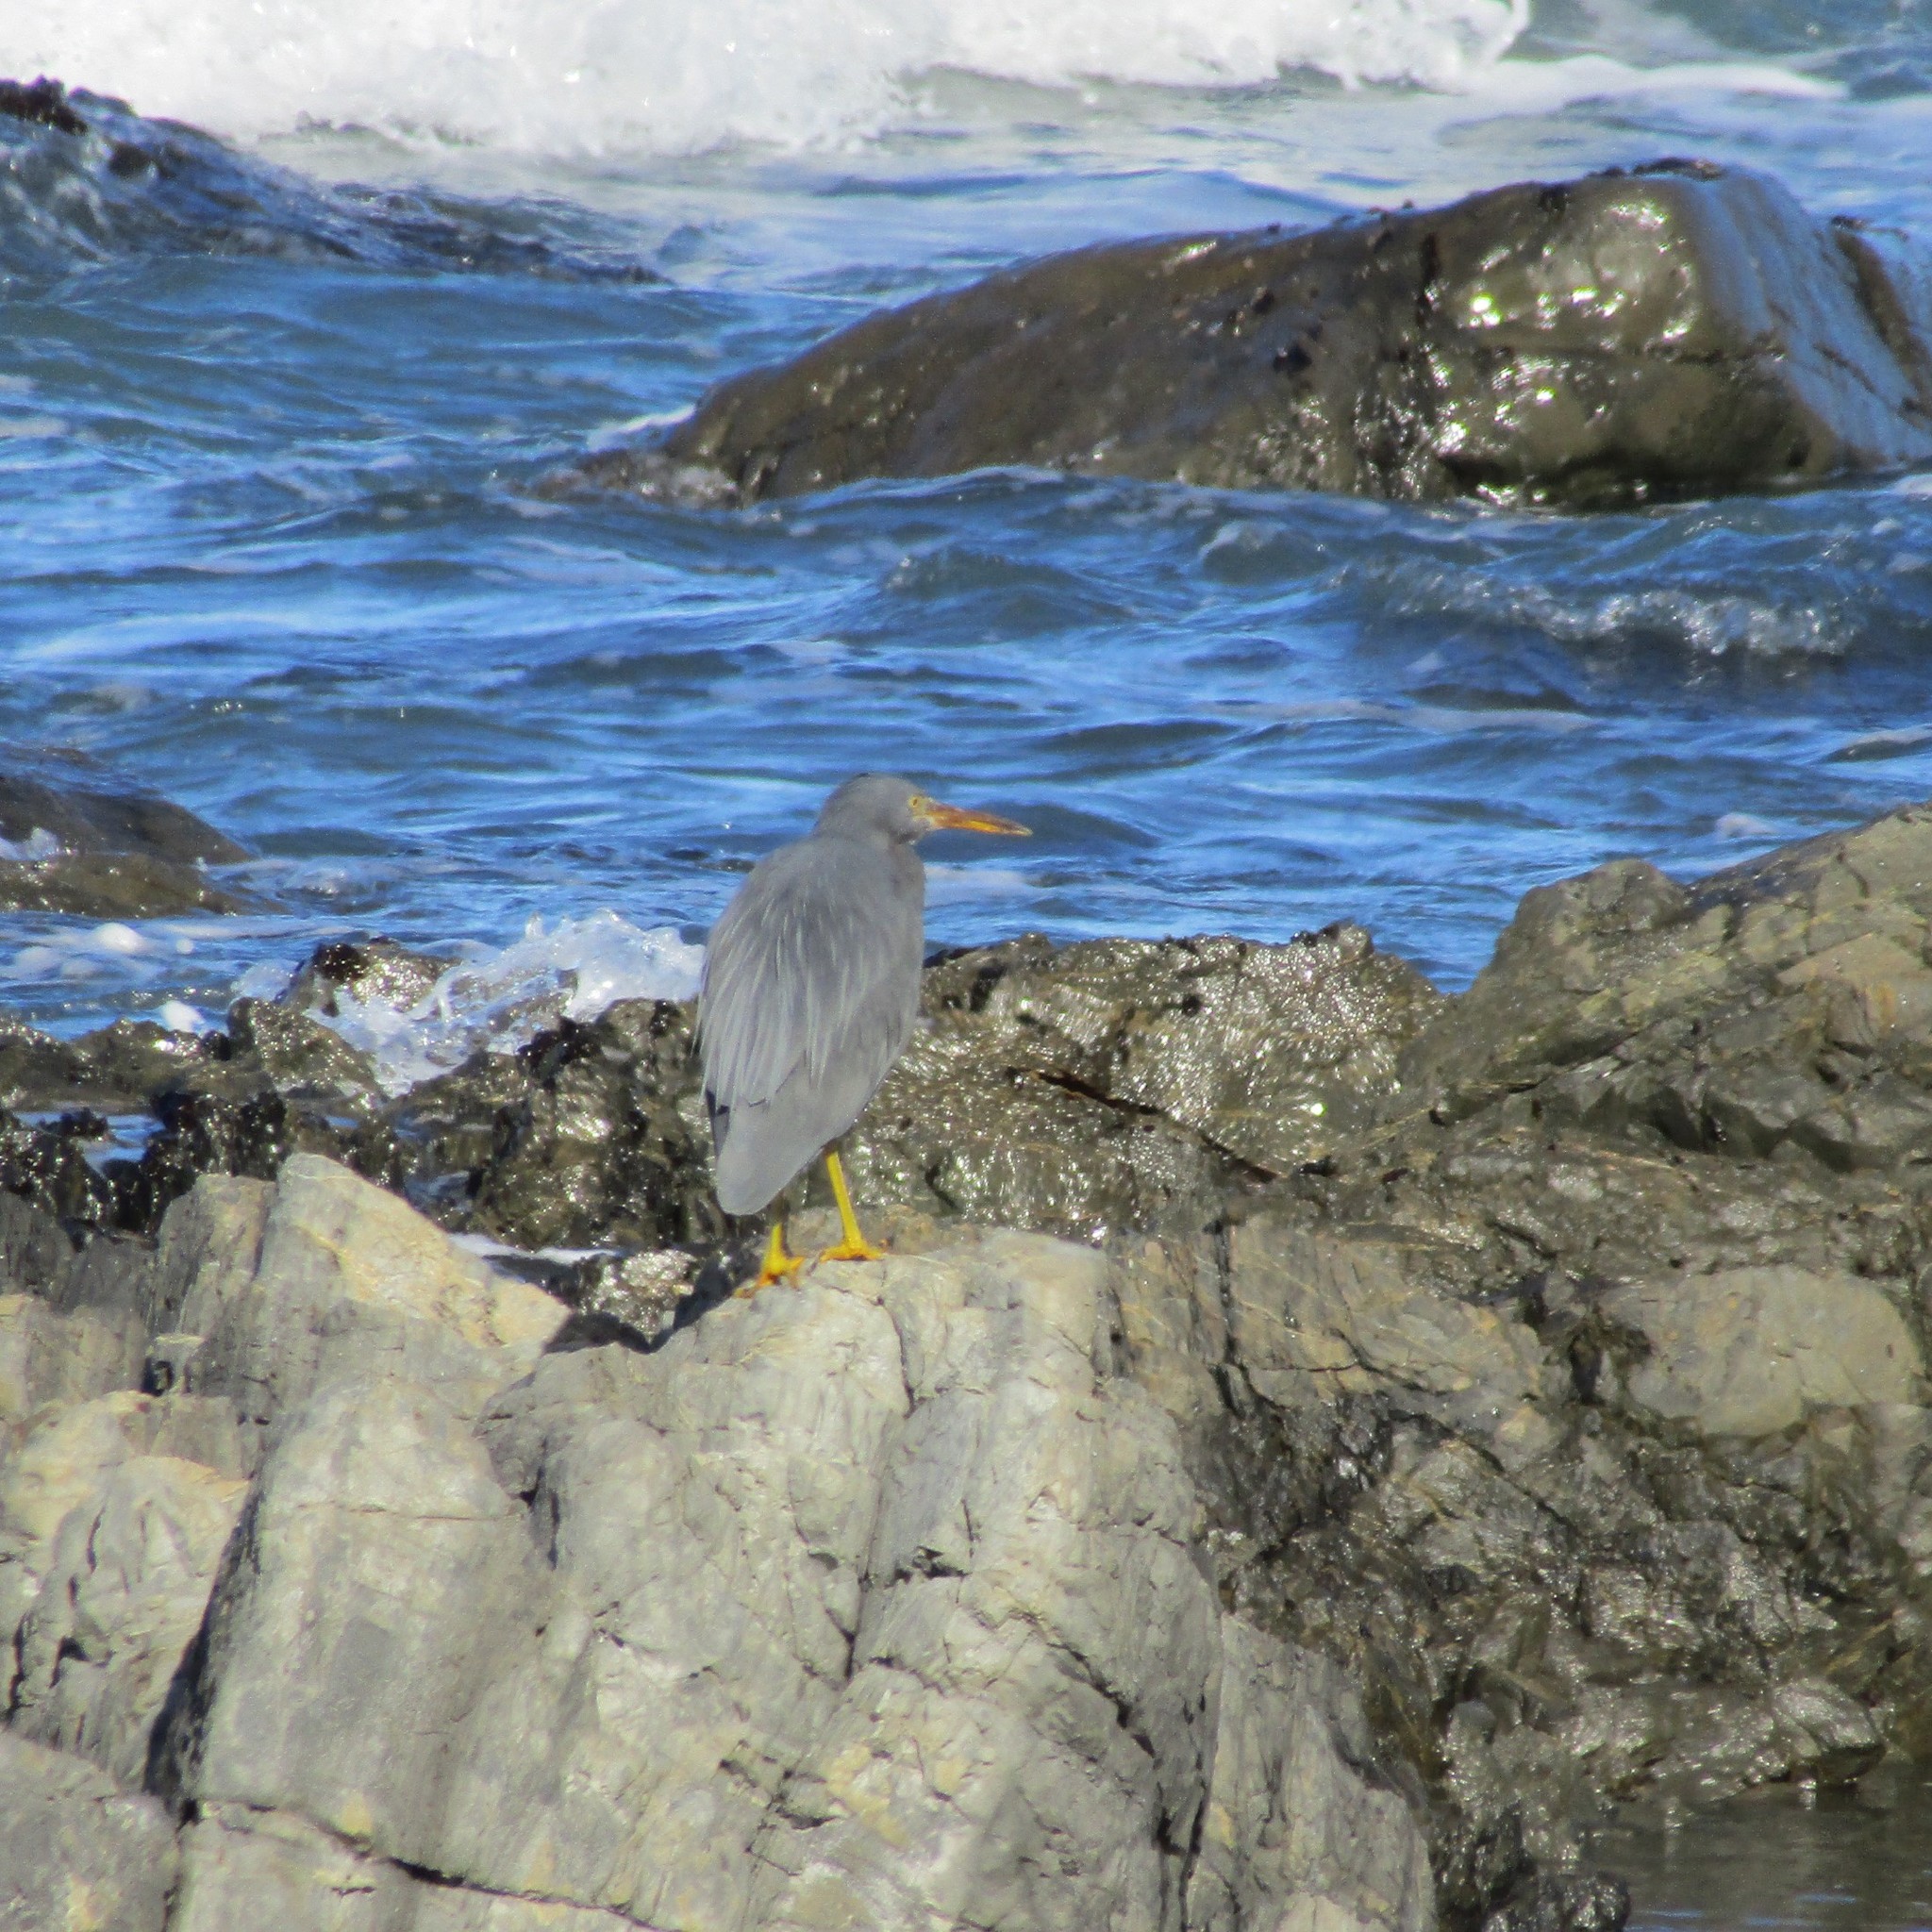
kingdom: Animalia
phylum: Chordata
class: Aves
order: Pelecaniformes
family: Ardeidae
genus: Egretta
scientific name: Egretta sacra
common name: Pacific reef heron
